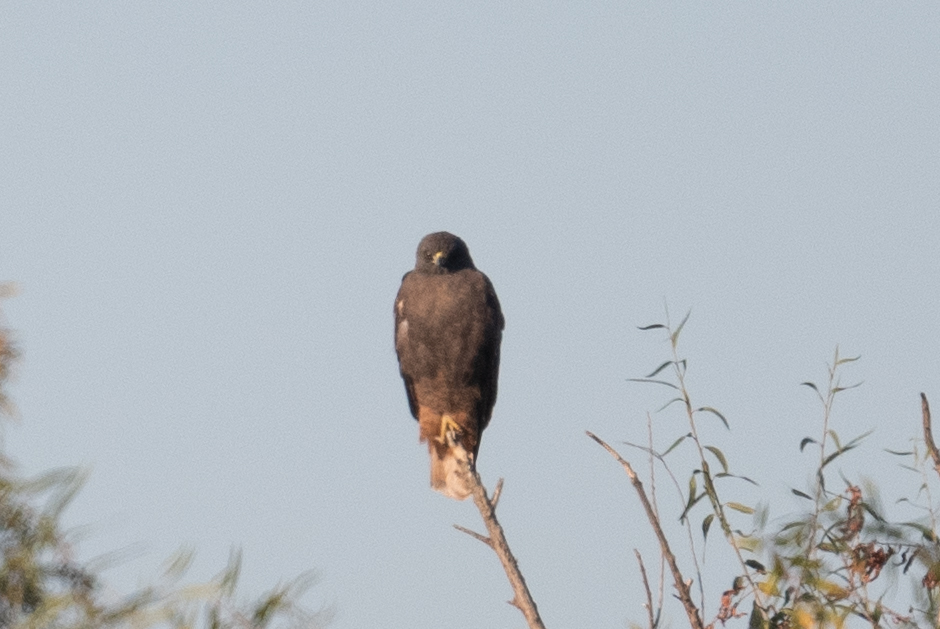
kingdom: Animalia
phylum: Chordata
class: Aves
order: Accipitriformes
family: Accipitridae
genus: Buteo
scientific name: Buteo jamaicensis
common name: Red-tailed hawk
